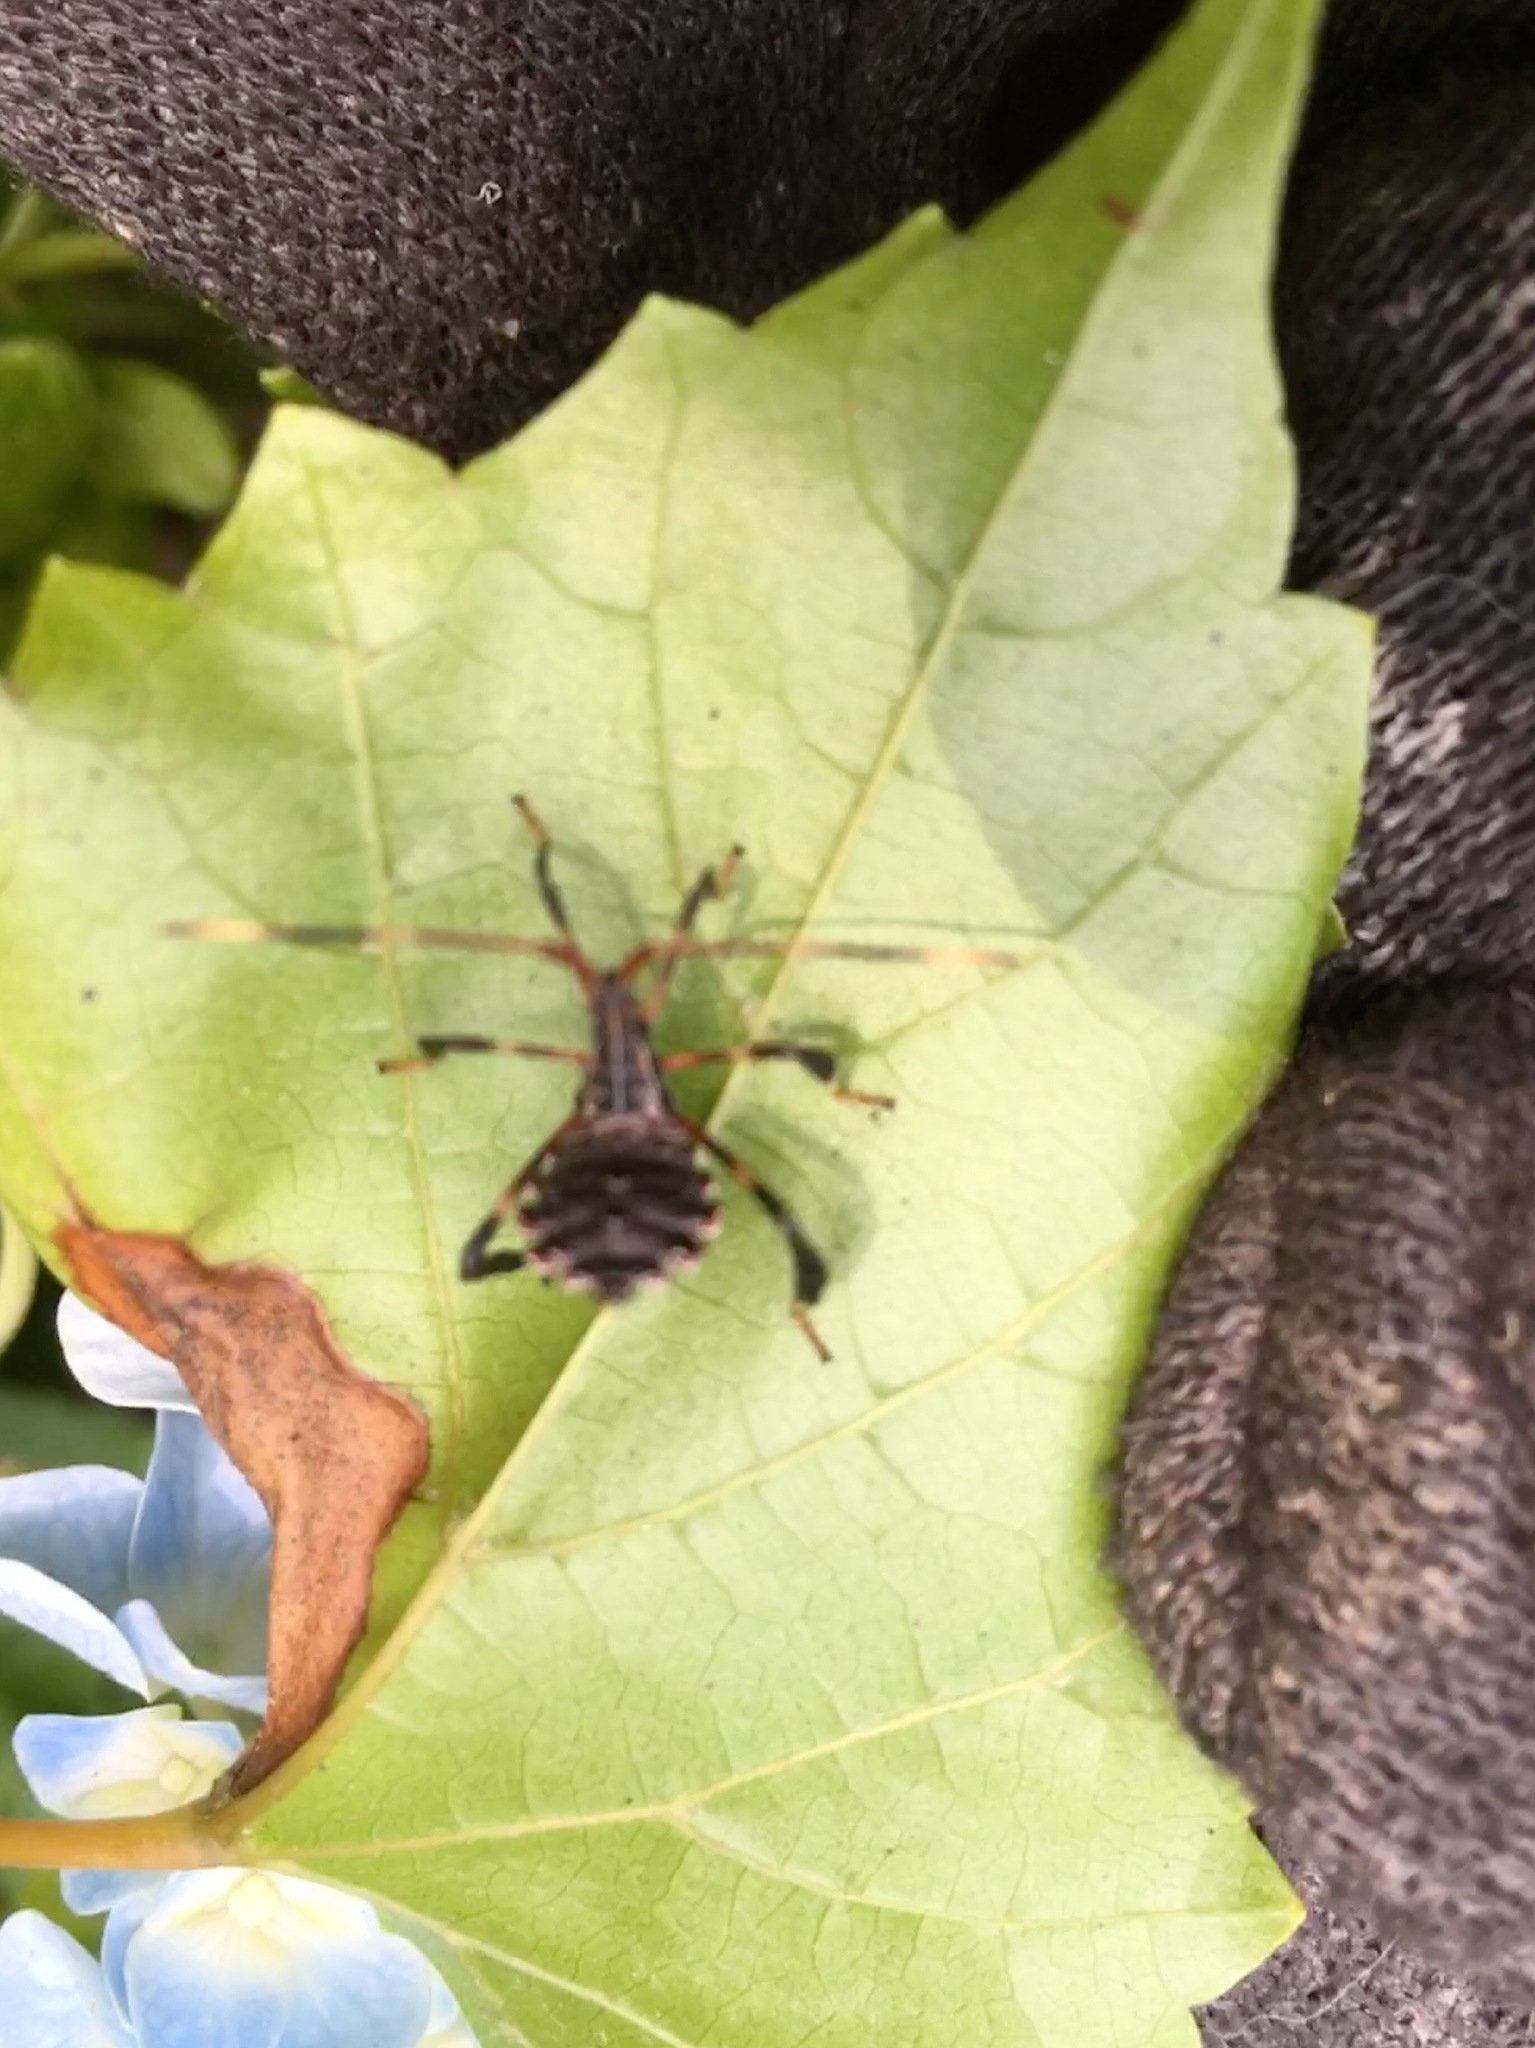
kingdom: Animalia
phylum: Arthropoda
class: Insecta
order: Hemiptera
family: Coreidae
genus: Acanthocephala
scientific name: Acanthocephala terminalis
